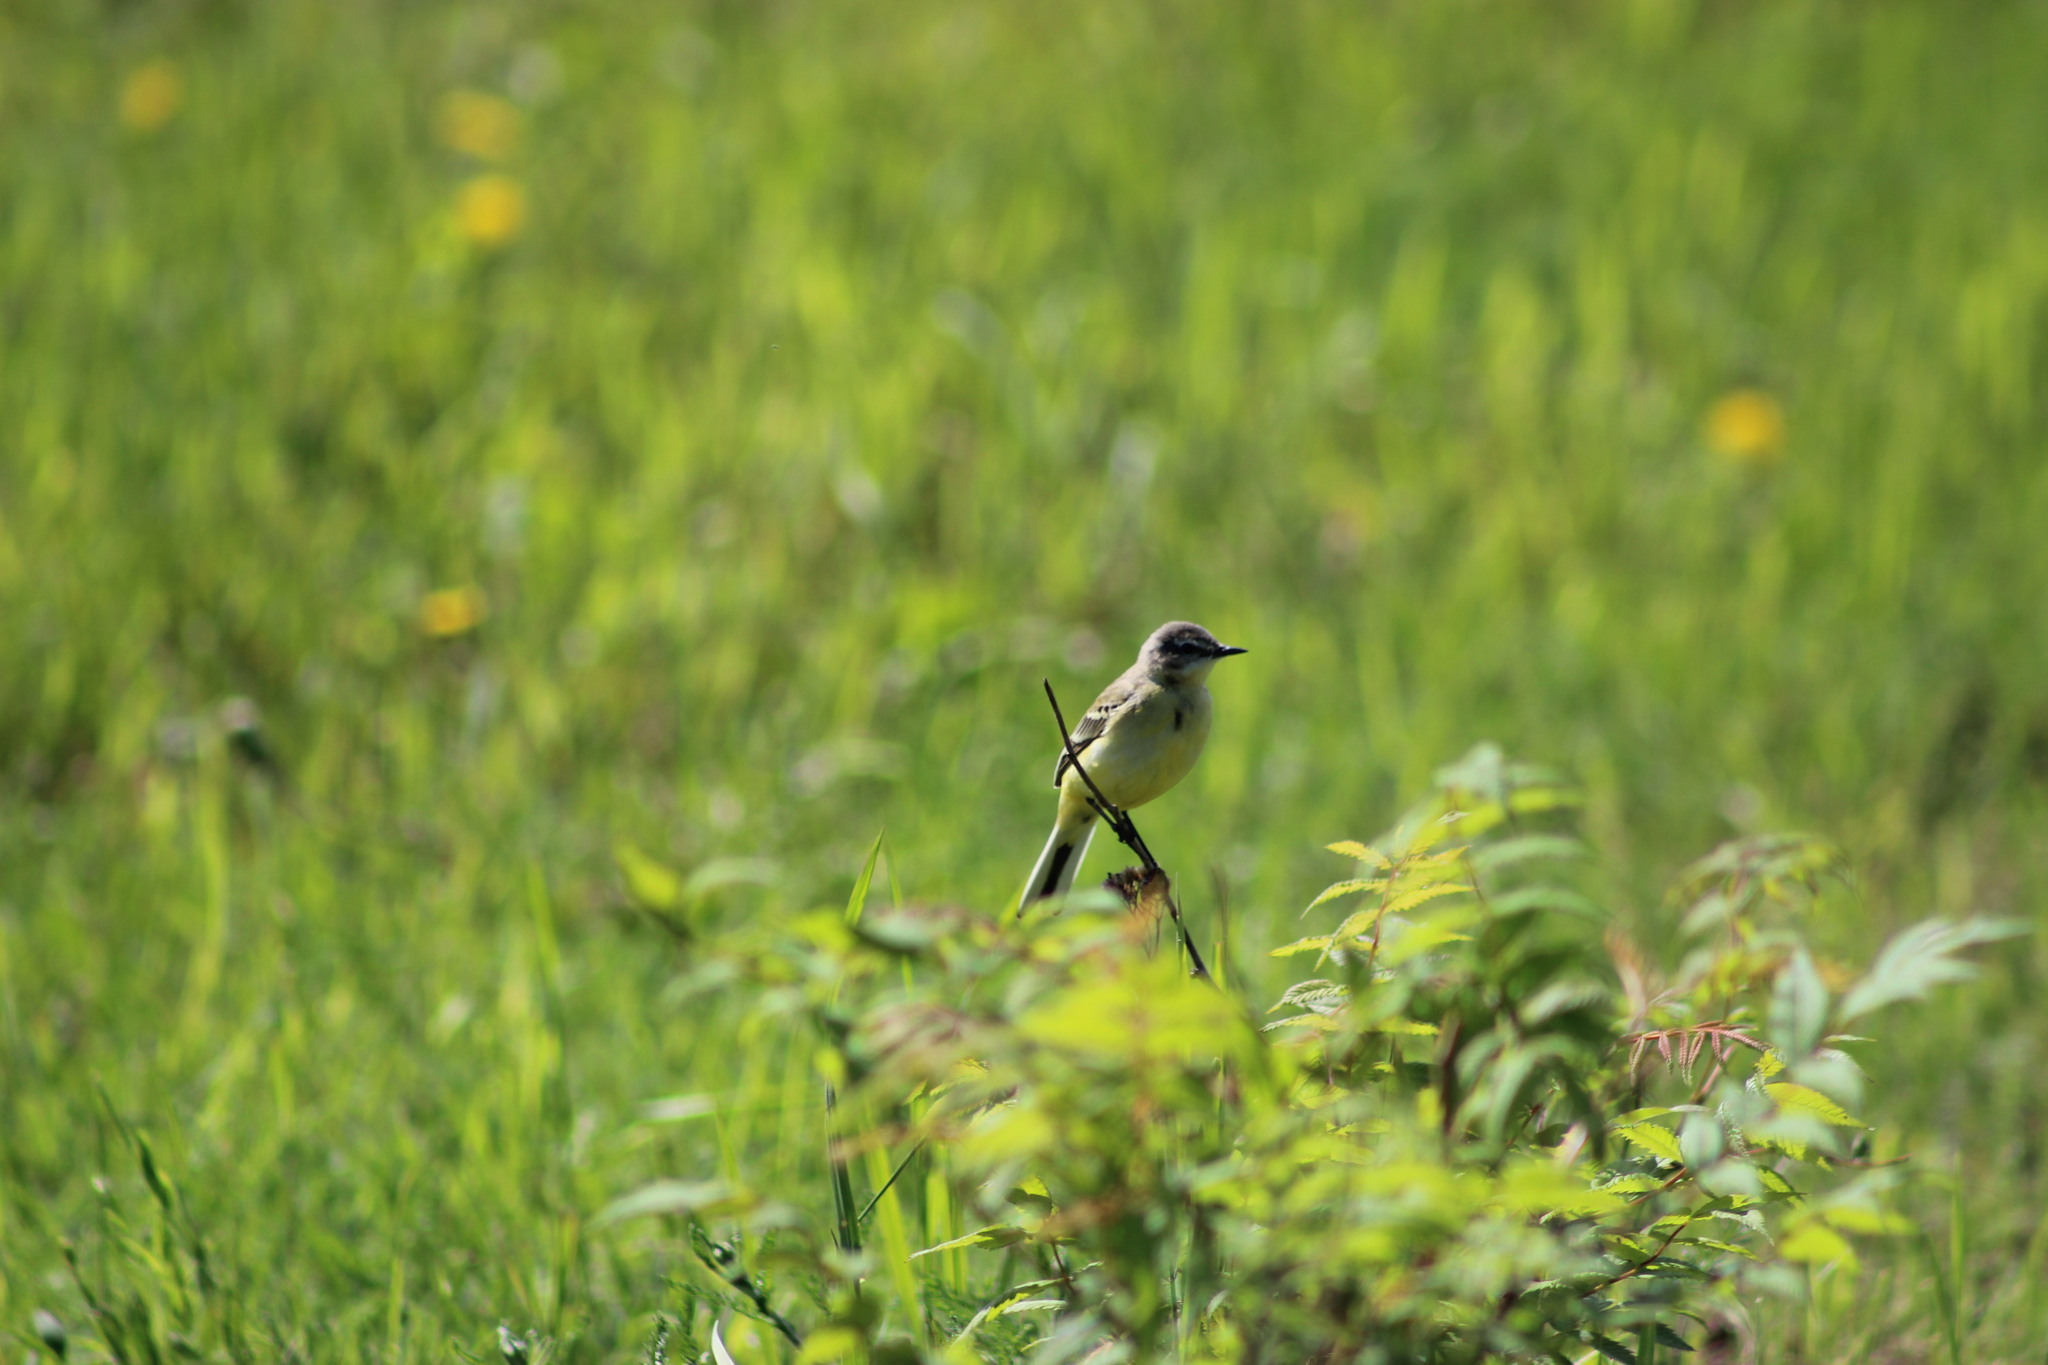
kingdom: Animalia
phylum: Chordata
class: Aves
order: Passeriformes
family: Motacillidae
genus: Motacilla
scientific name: Motacilla flava
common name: Western yellow wagtail
